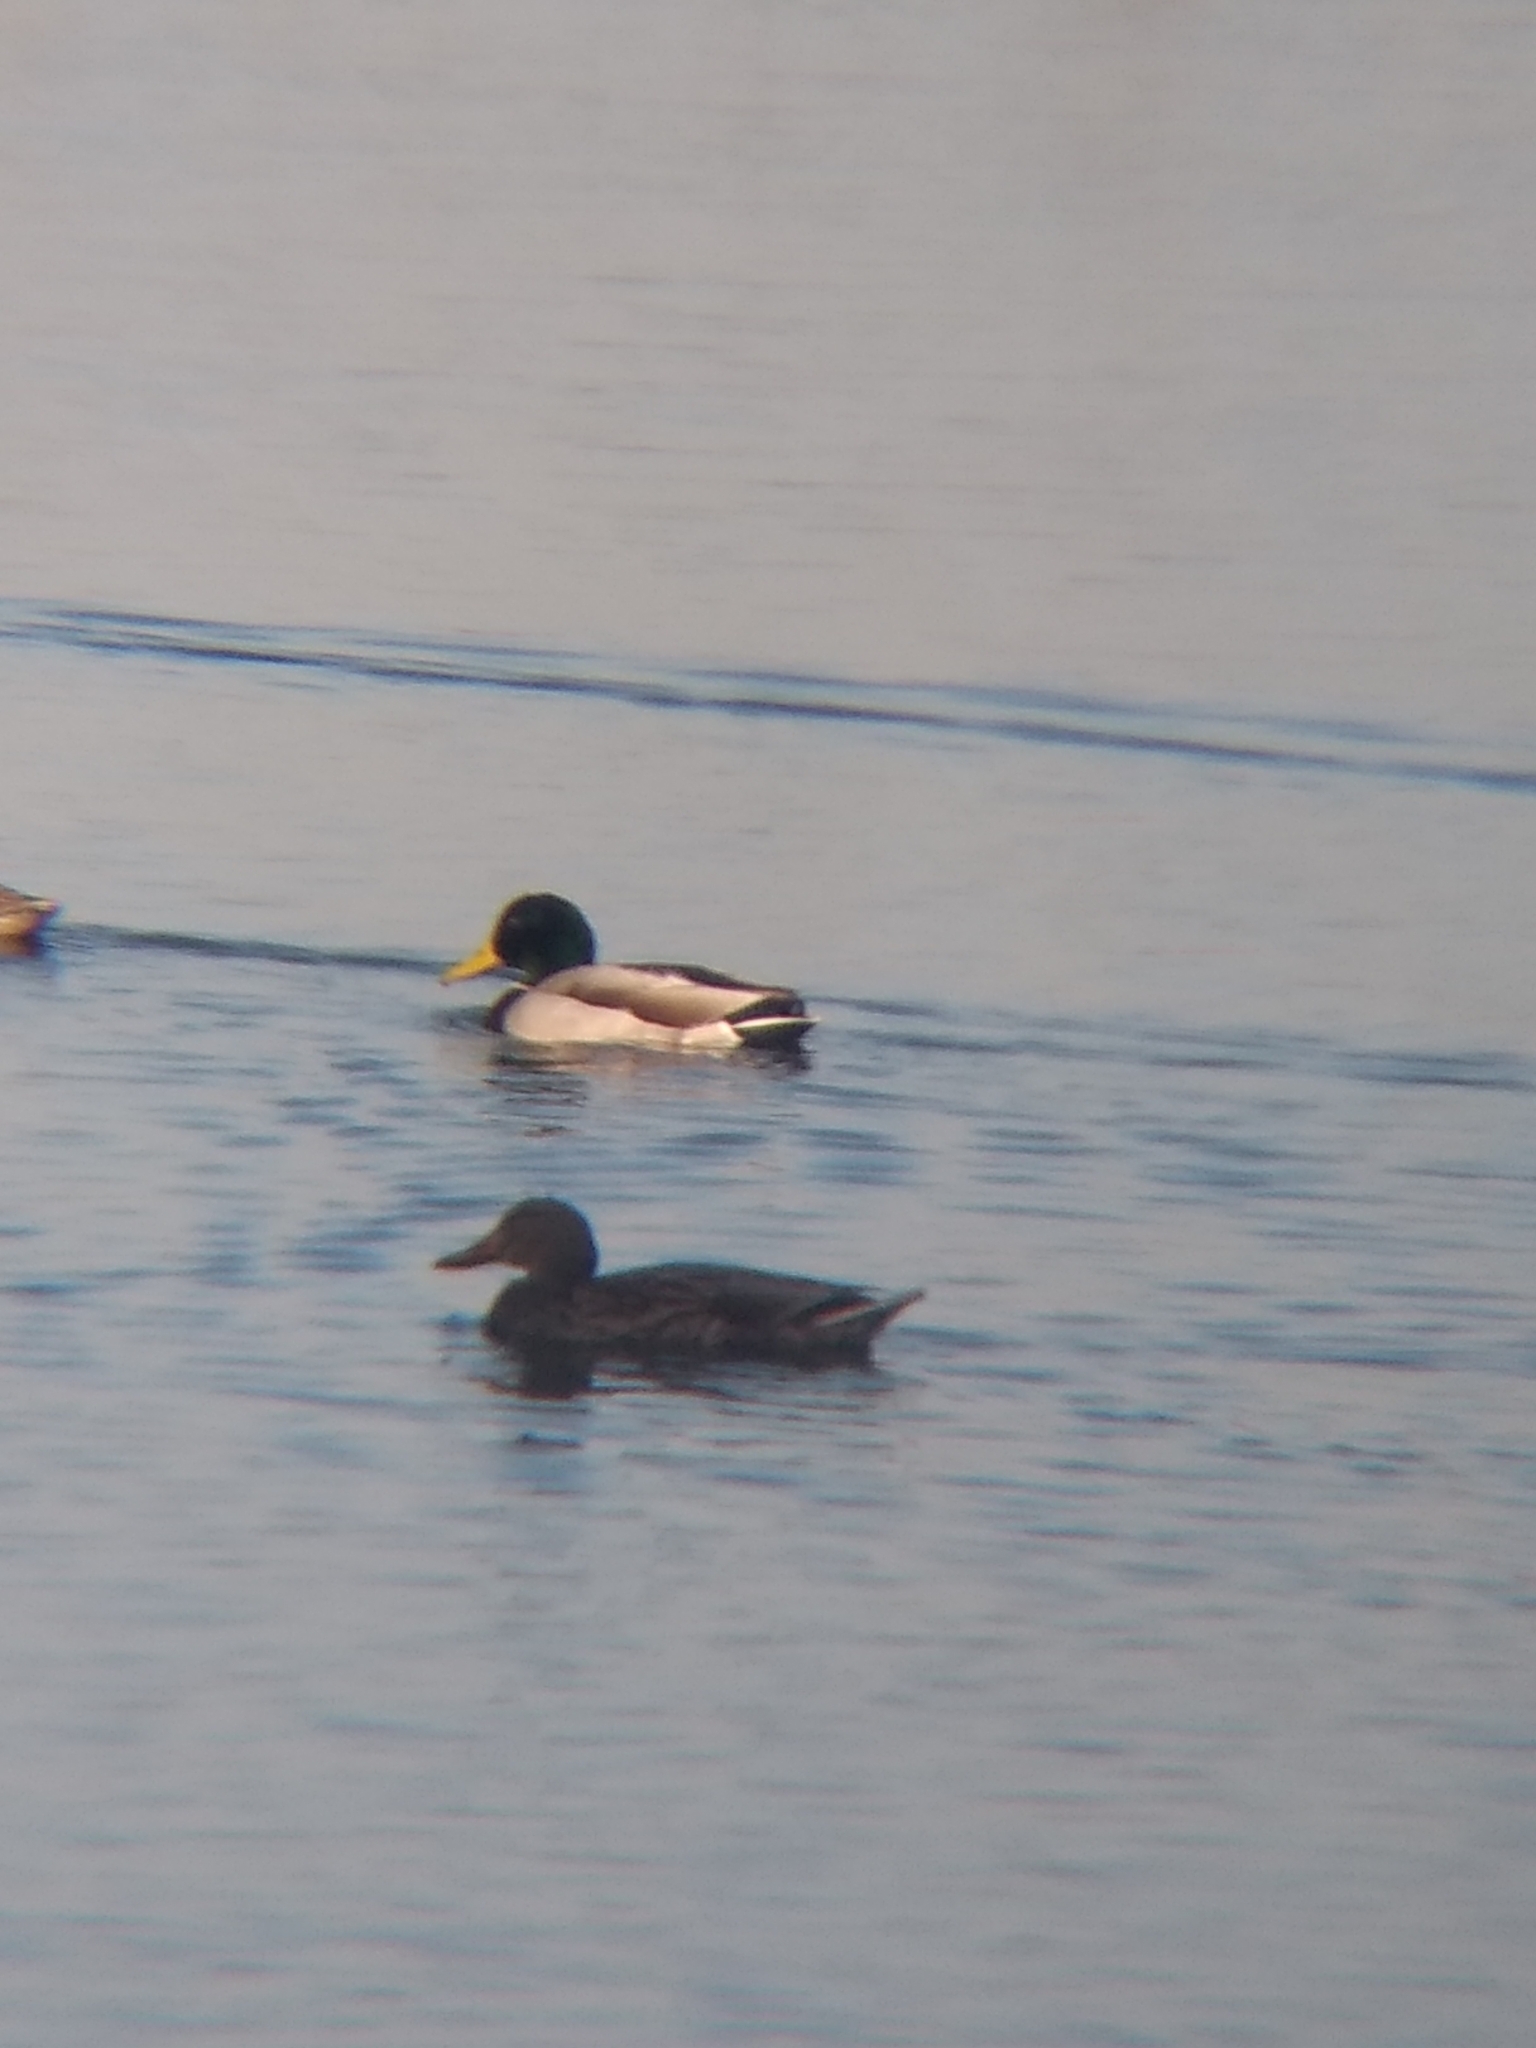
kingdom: Animalia
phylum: Chordata
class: Aves
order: Anseriformes
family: Anatidae
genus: Anas
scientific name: Anas platyrhynchos
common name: Mallard
